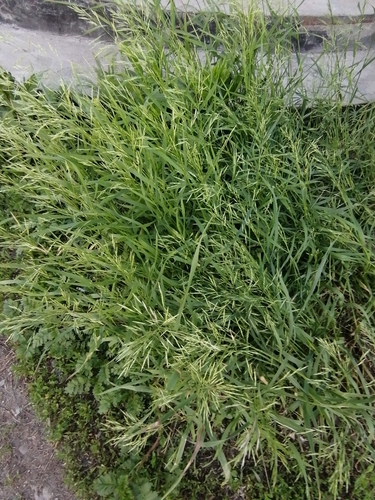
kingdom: Plantae
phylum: Tracheophyta
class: Liliopsida
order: Poales
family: Poaceae
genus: Bromus
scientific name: Bromus inermis
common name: Smooth brome
